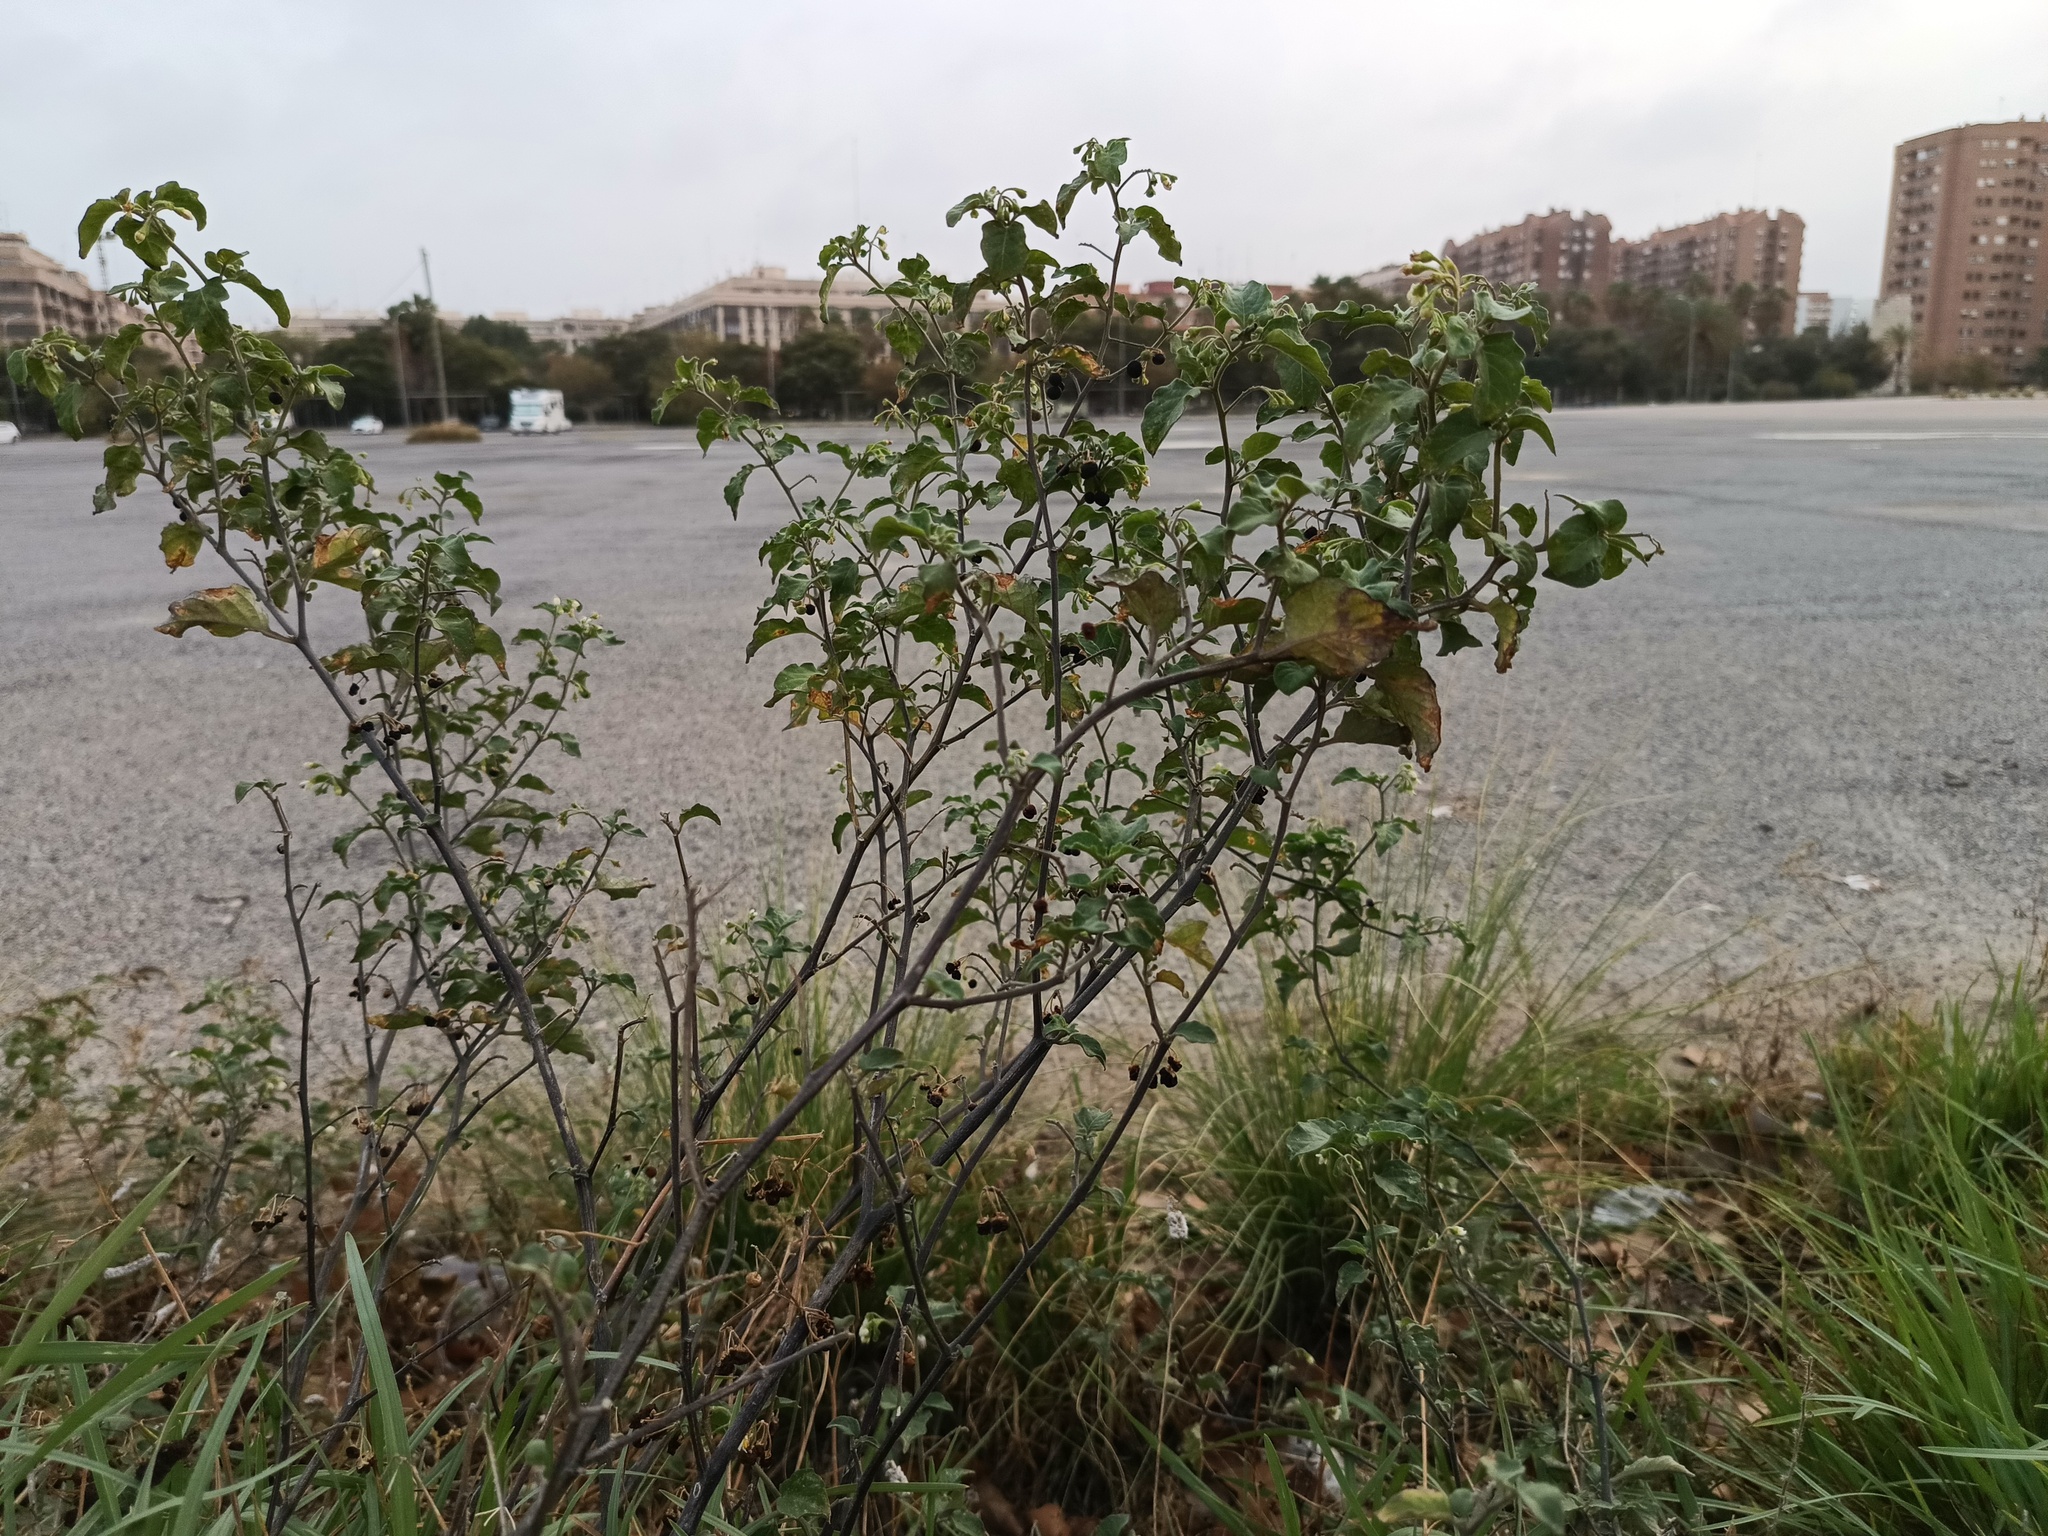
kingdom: Plantae
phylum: Tracheophyta
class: Magnoliopsida
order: Solanales
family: Solanaceae
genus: Solanum
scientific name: Solanum nigrum
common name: Black nightshade
